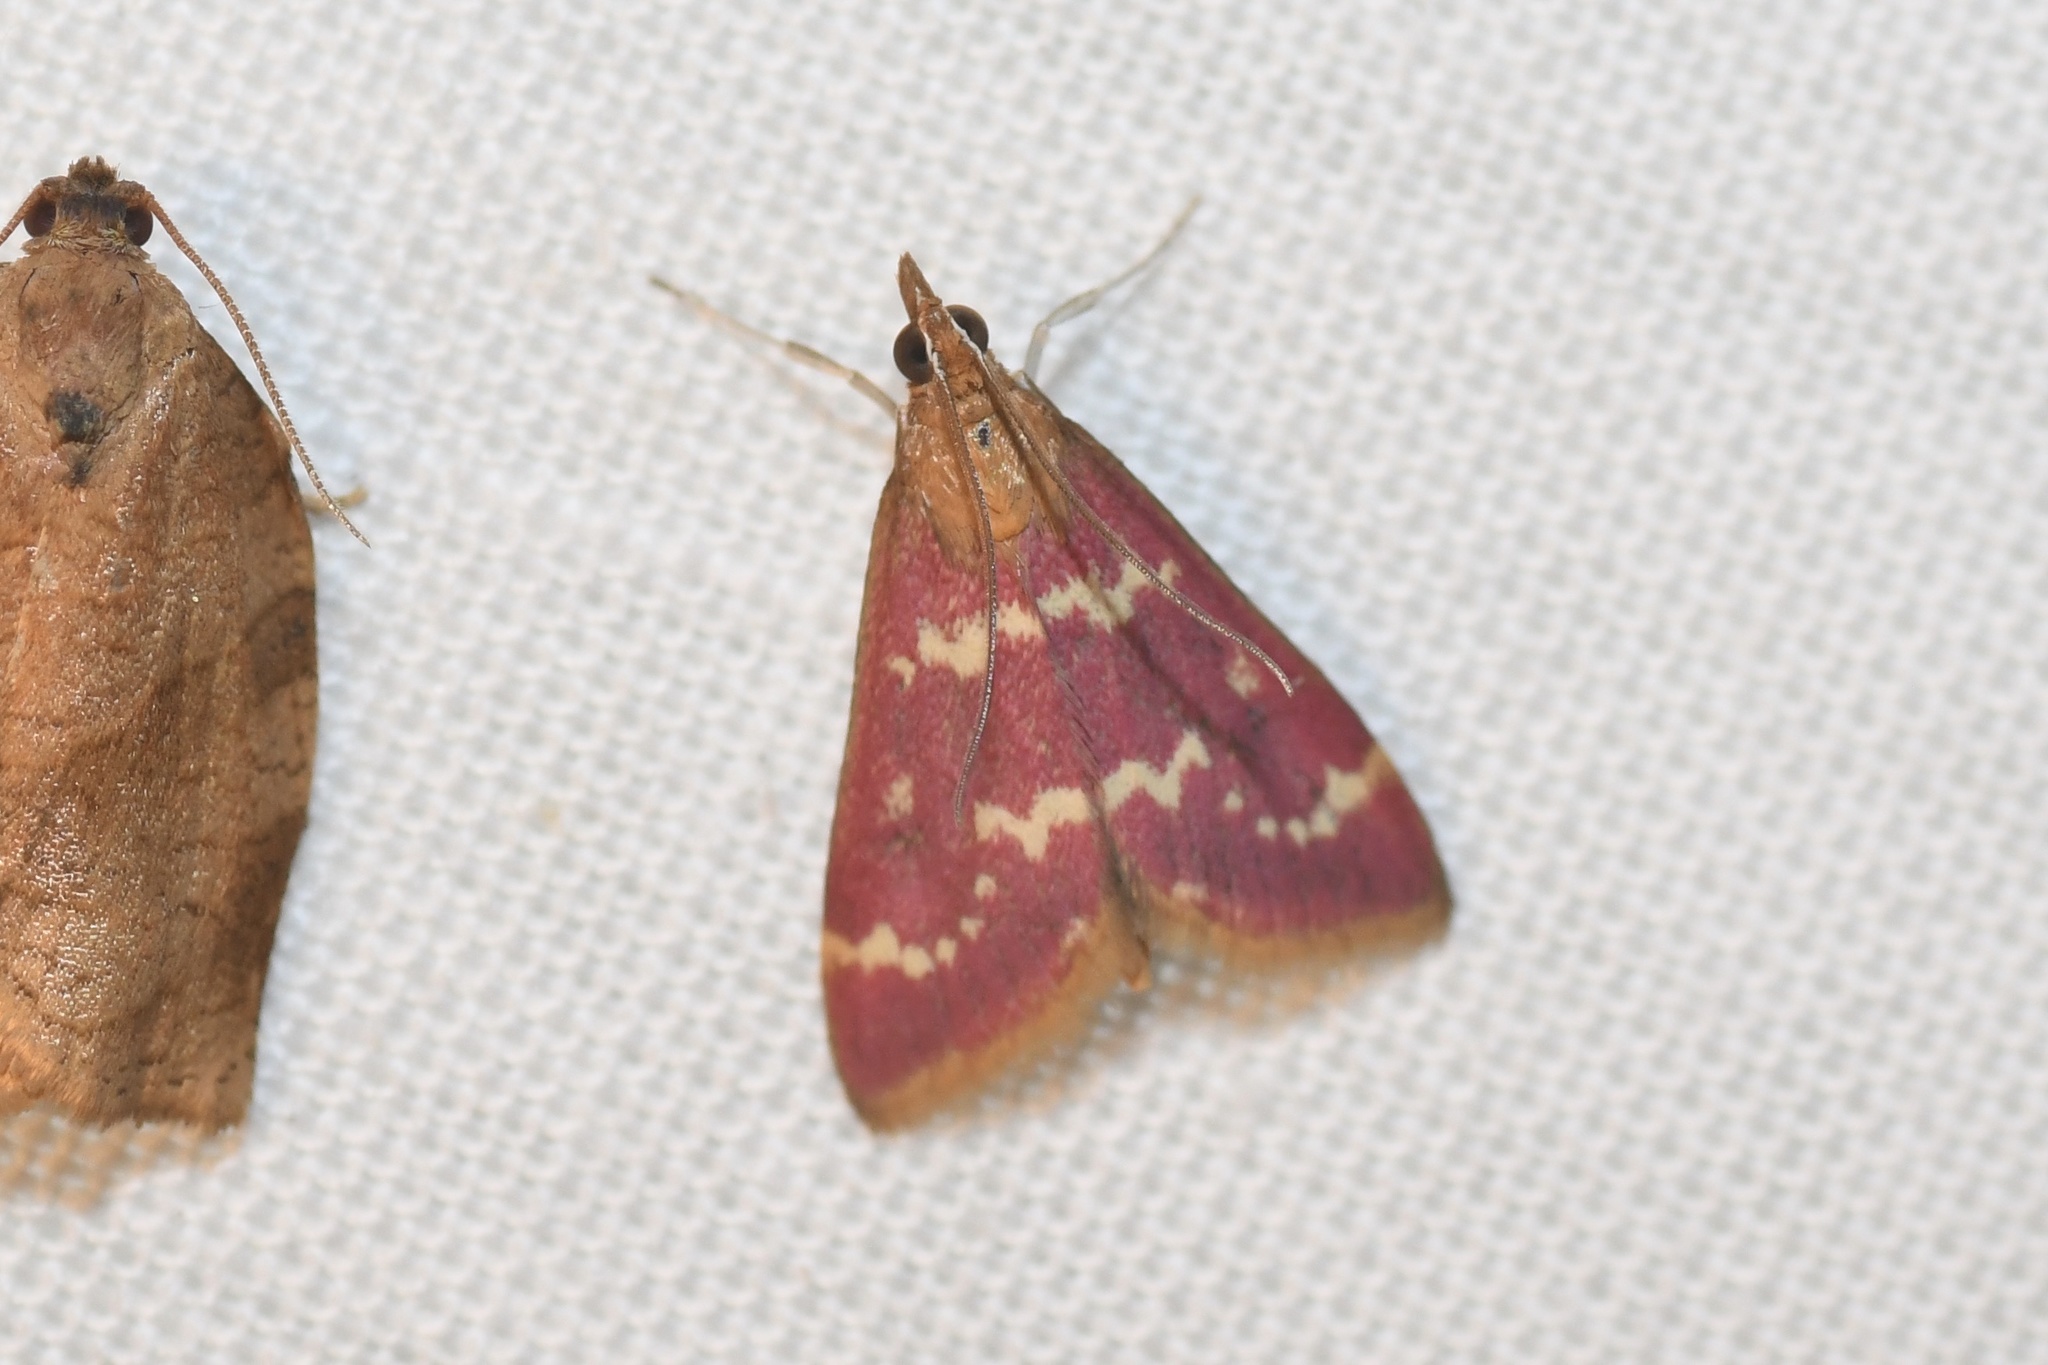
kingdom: Animalia
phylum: Arthropoda
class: Insecta
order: Lepidoptera
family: Crambidae
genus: Pyrausta
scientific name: Pyrausta signatalis
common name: Raspberry pyrausta moth
